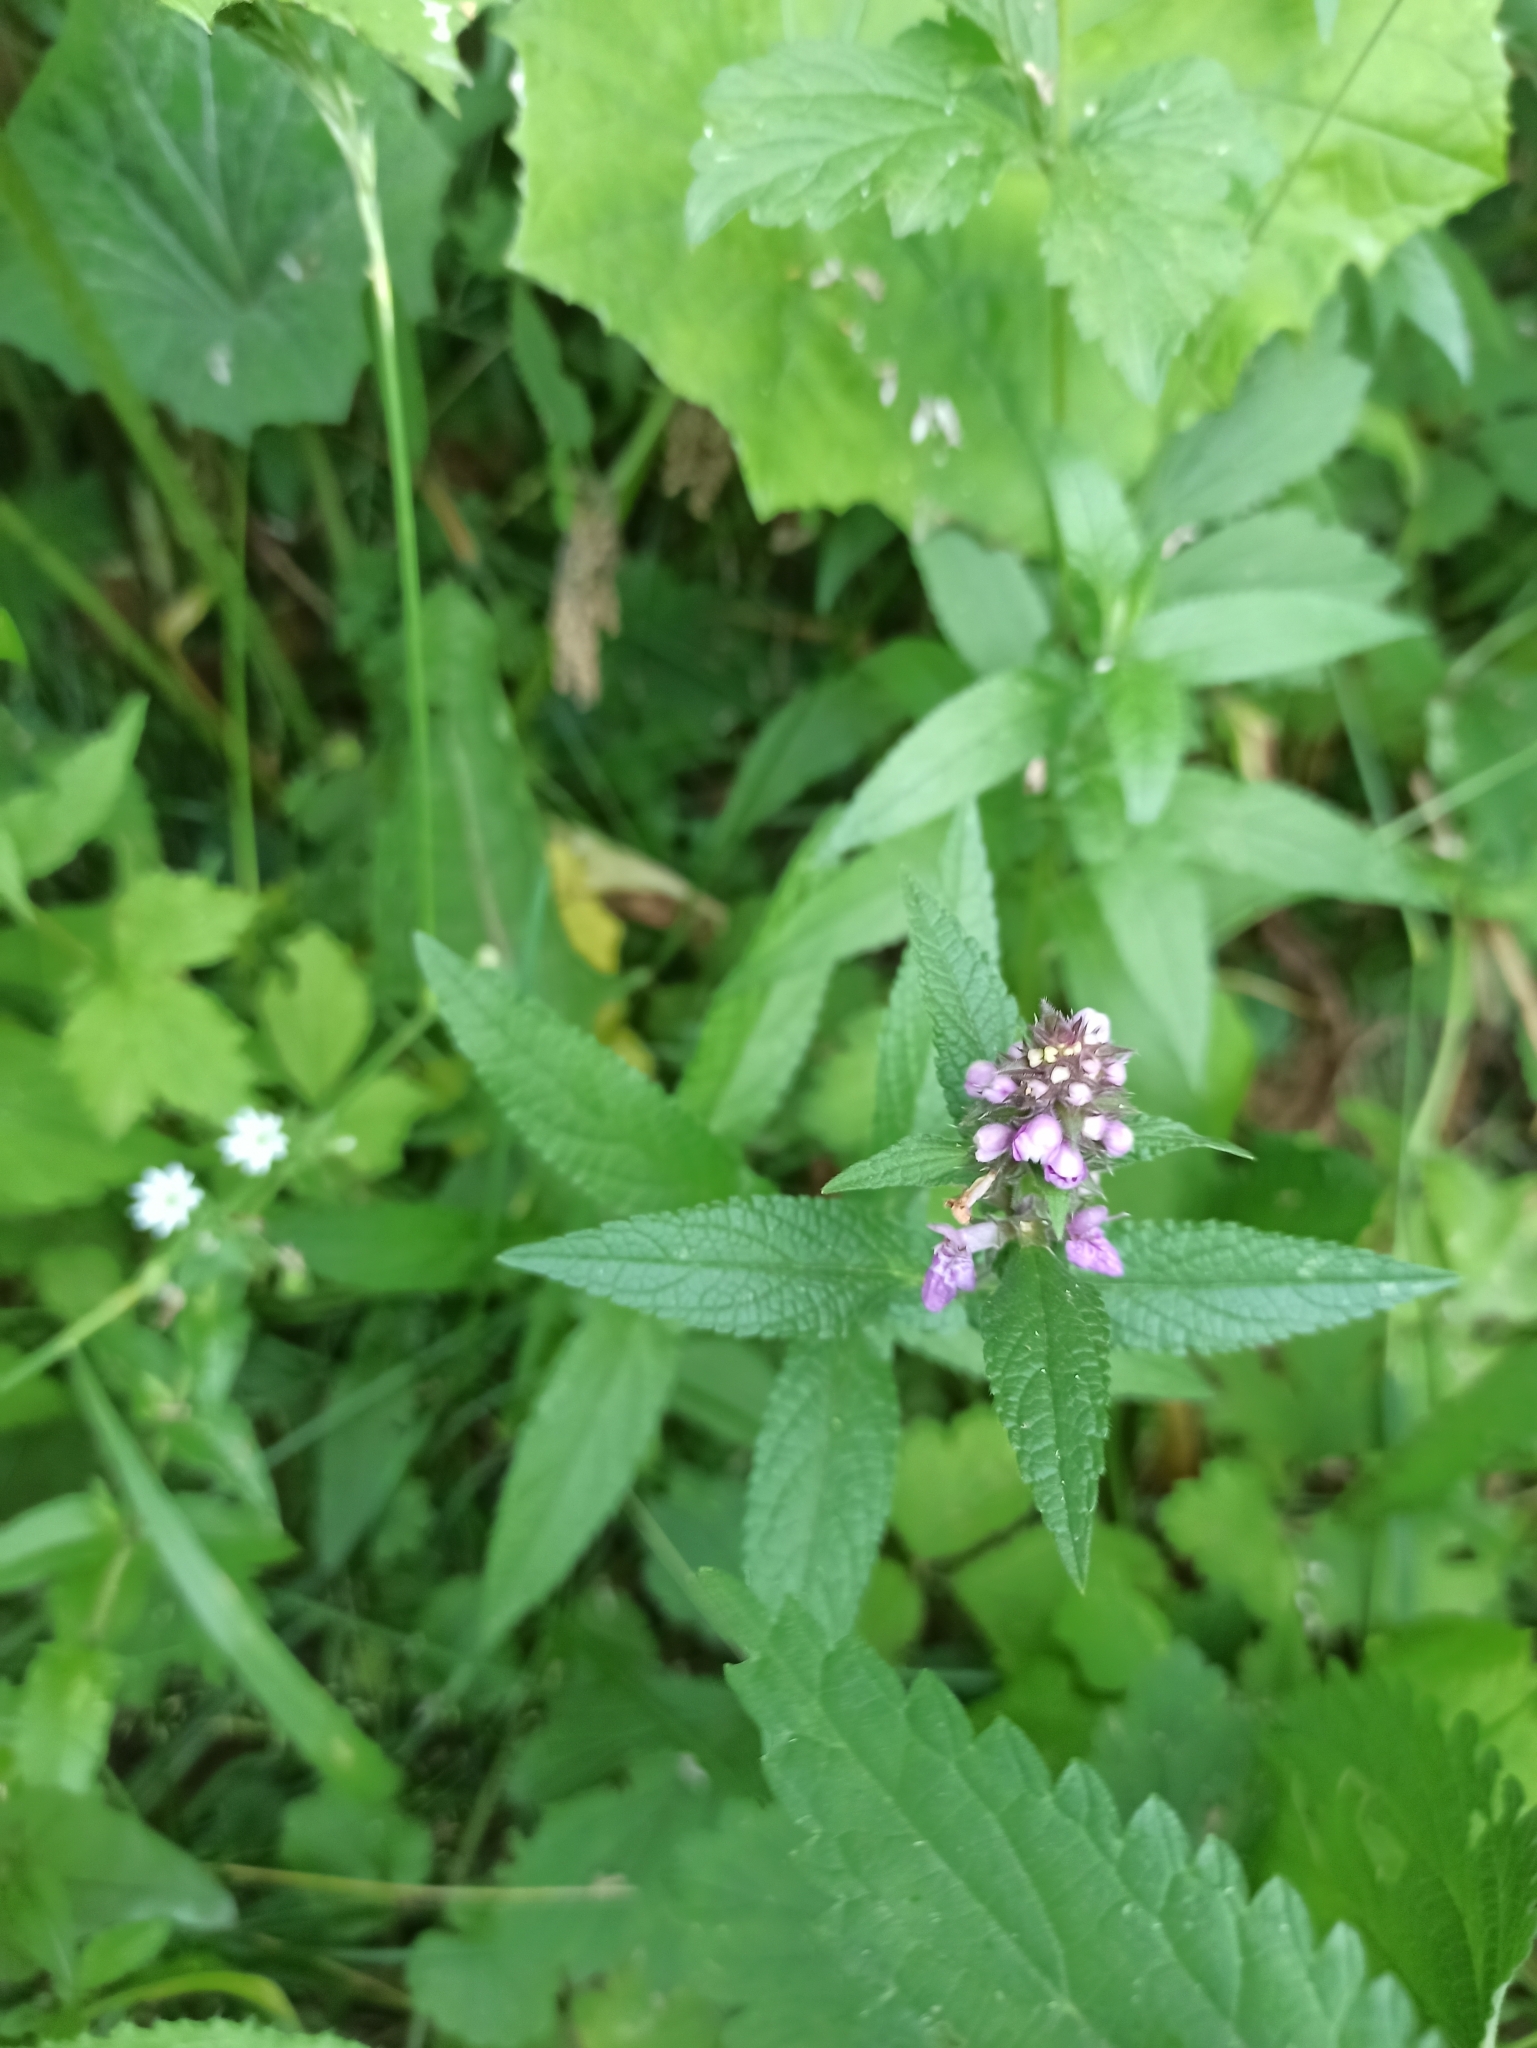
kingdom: Plantae
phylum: Tracheophyta
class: Magnoliopsida
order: Lamiales
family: Lamiaceae
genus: Stachys
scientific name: Stachys palustris
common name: Marsh woundwort
